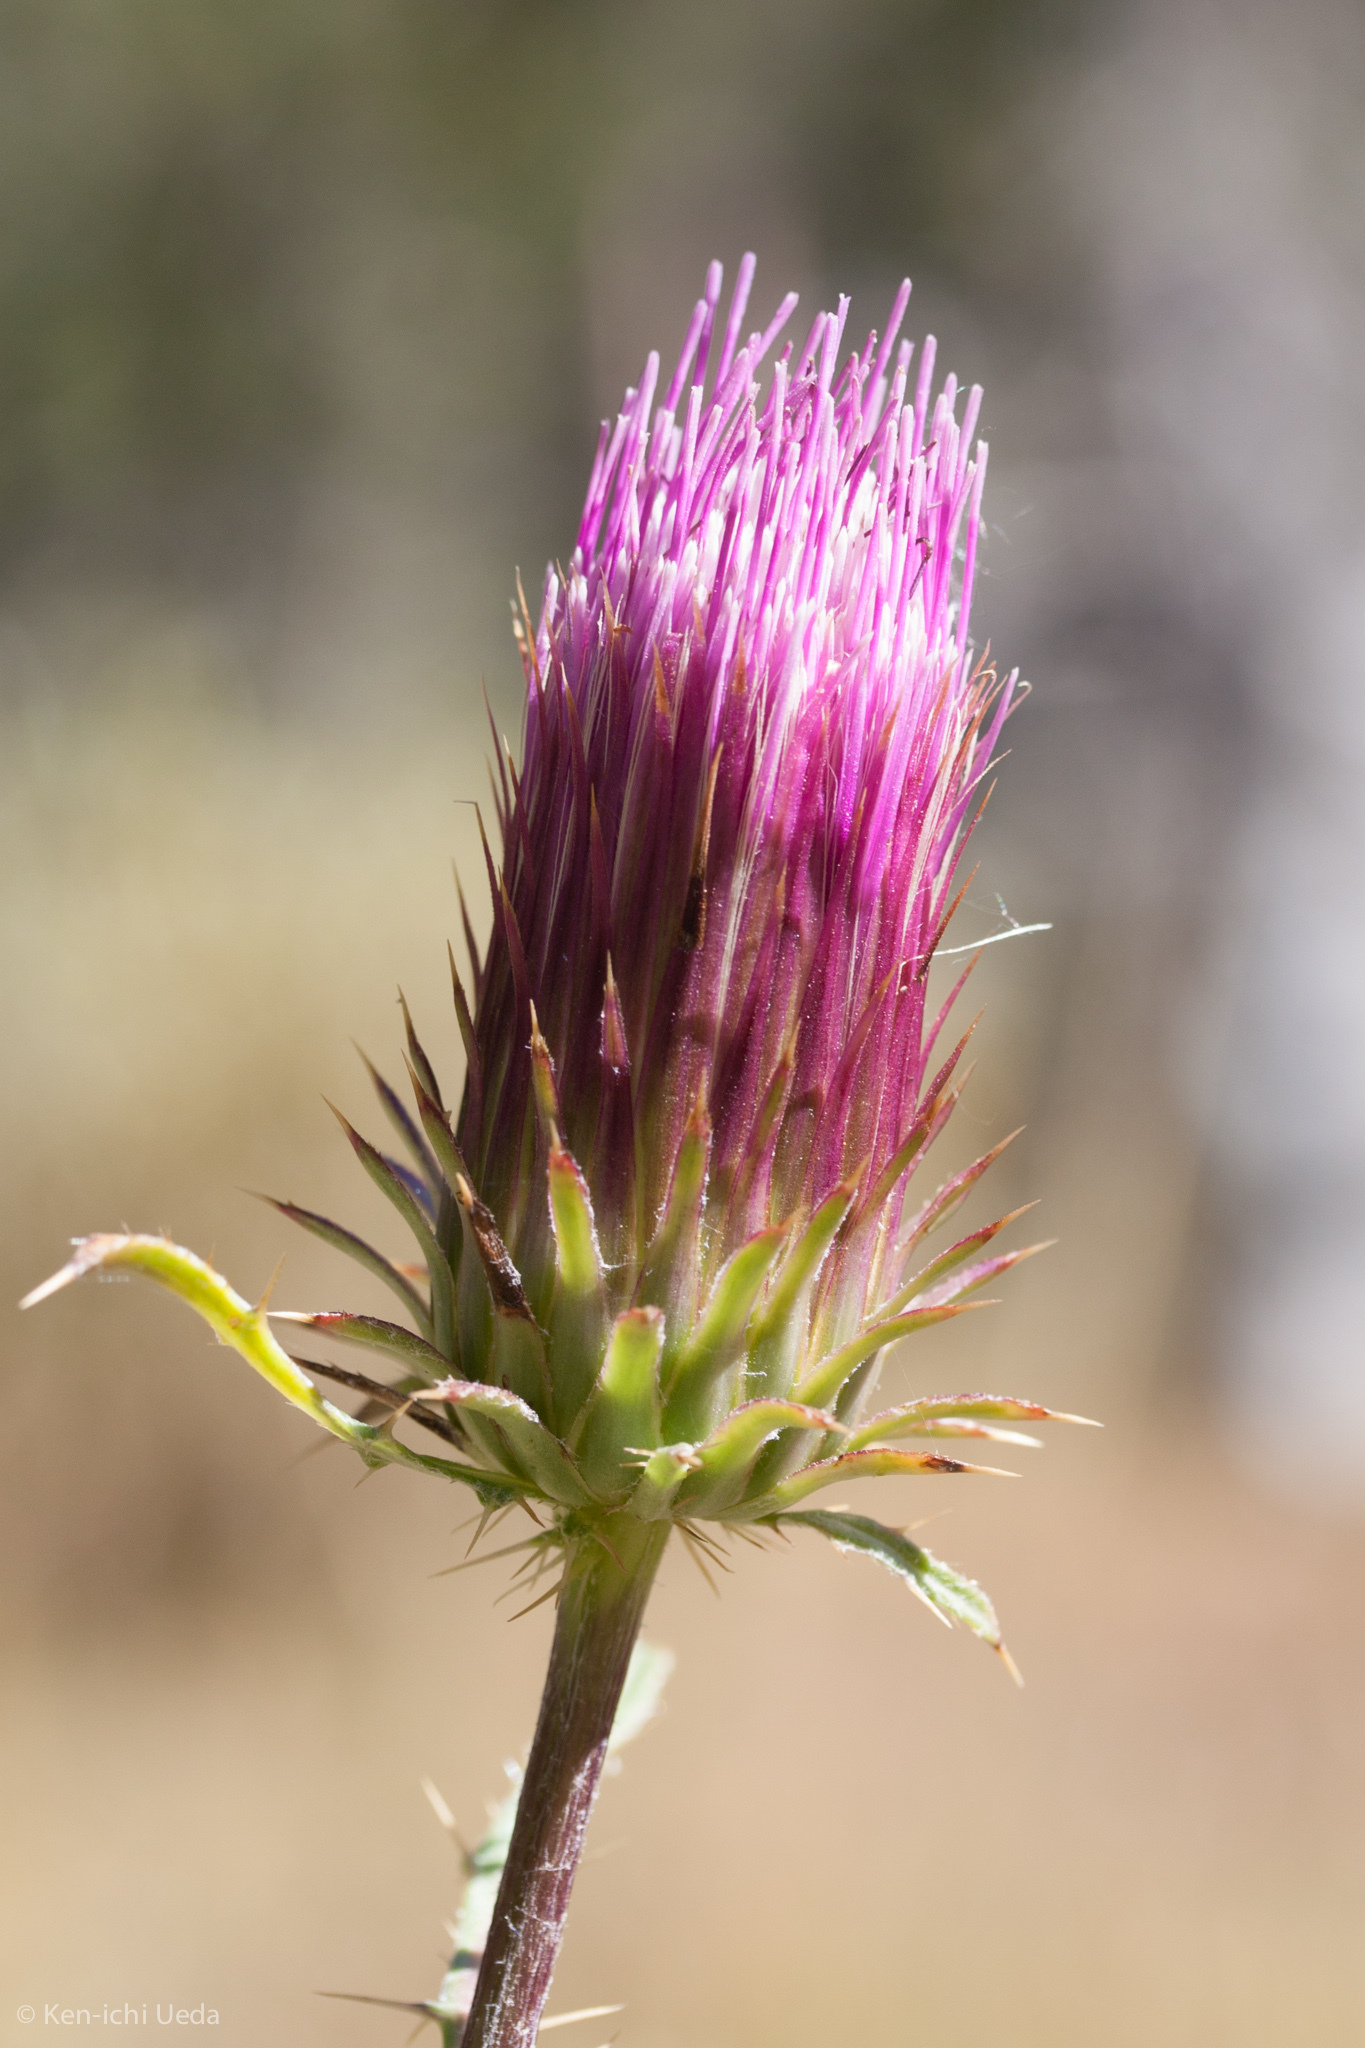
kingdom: Plantae
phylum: Tracheophyta
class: Magnoliopsida
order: Asterales
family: Asteraceae
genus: Cirsium
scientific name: Cirsium andersonii
